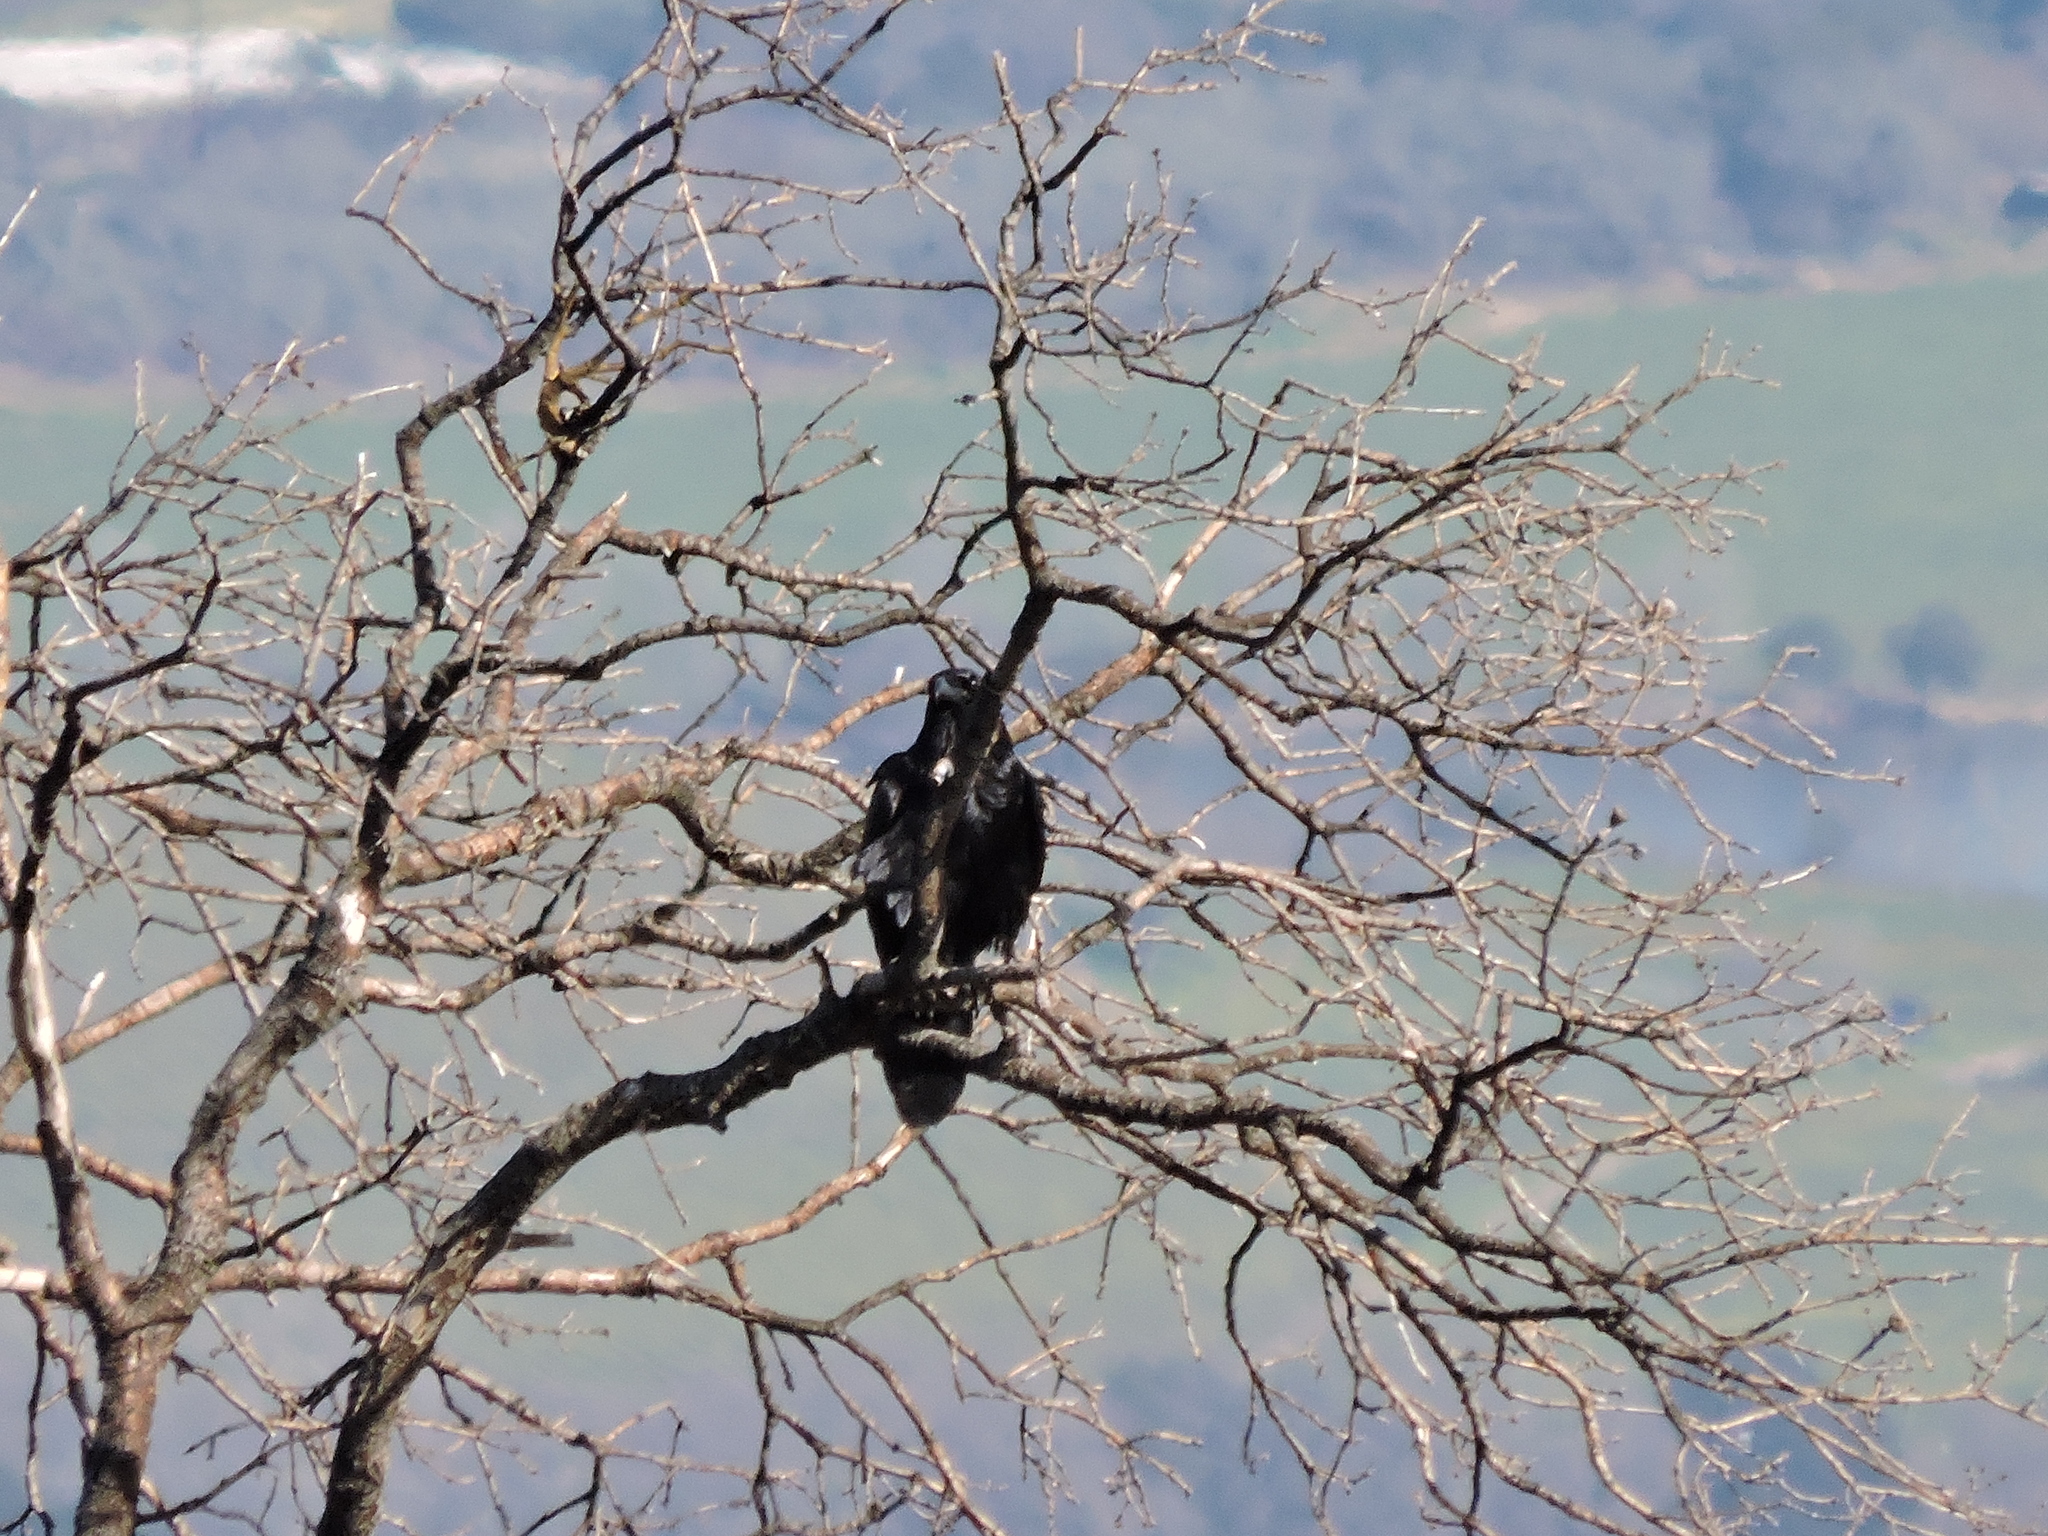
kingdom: Animalia
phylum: Chordata
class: Aves
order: Passeriformes
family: Corvidae
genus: Corvus
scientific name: Corvus corax
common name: Common raven
